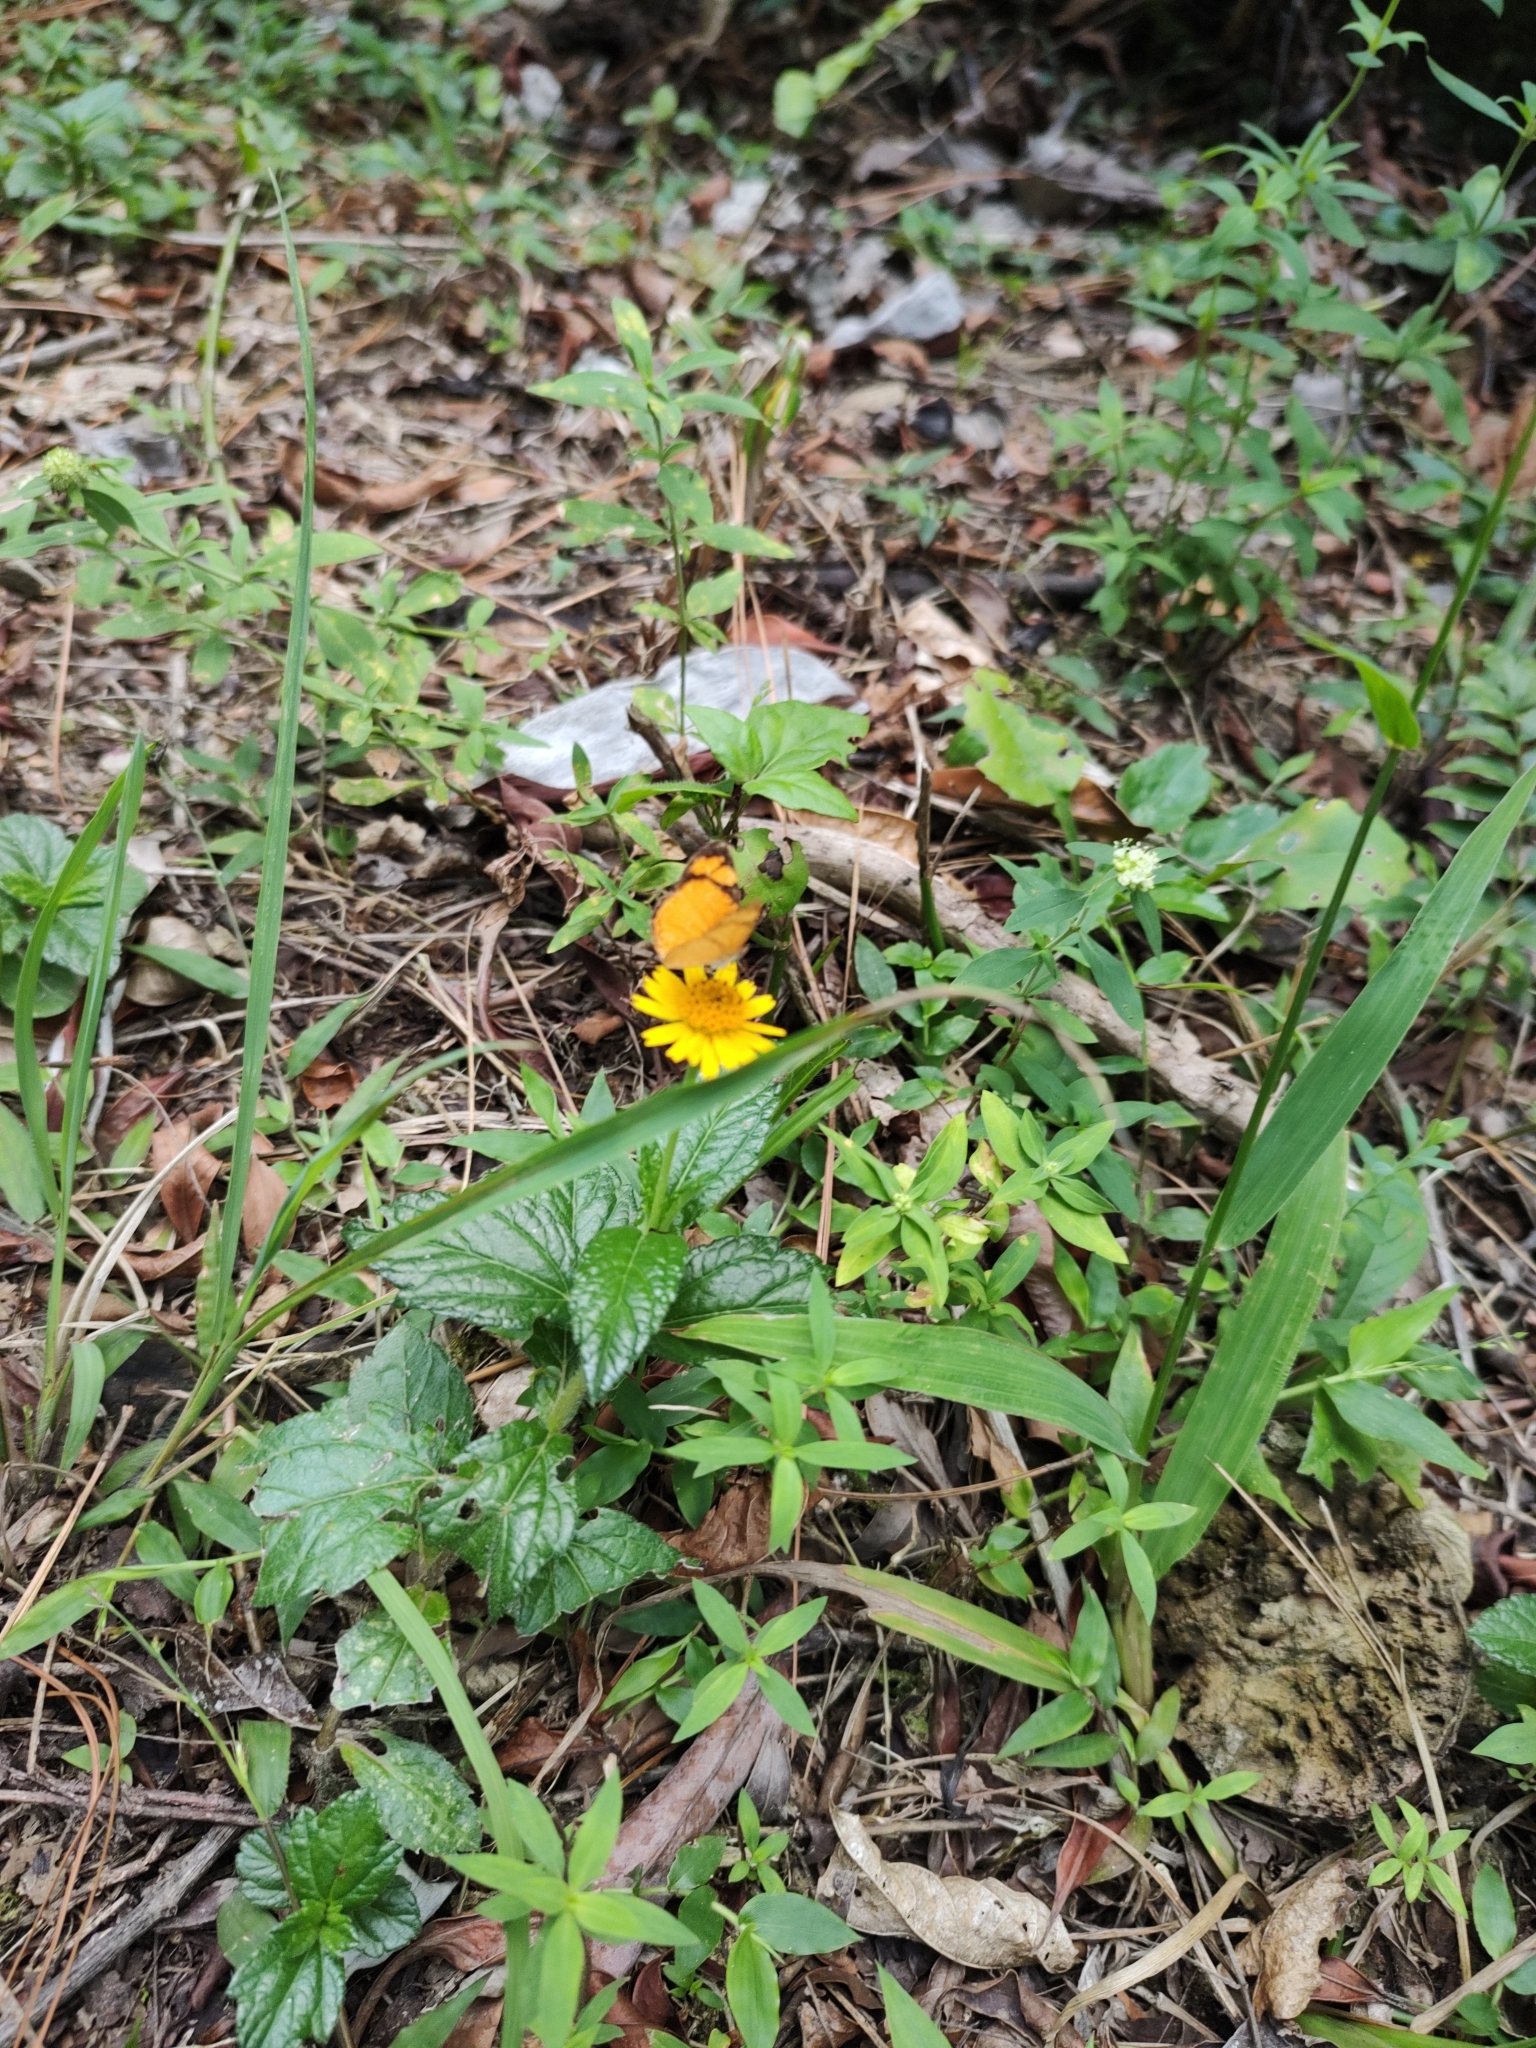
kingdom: Animalia
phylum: Arthropoda
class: Insecta
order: Lepidoptera
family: Nymphalidae
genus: Tegosa
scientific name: Tegosa claudina
